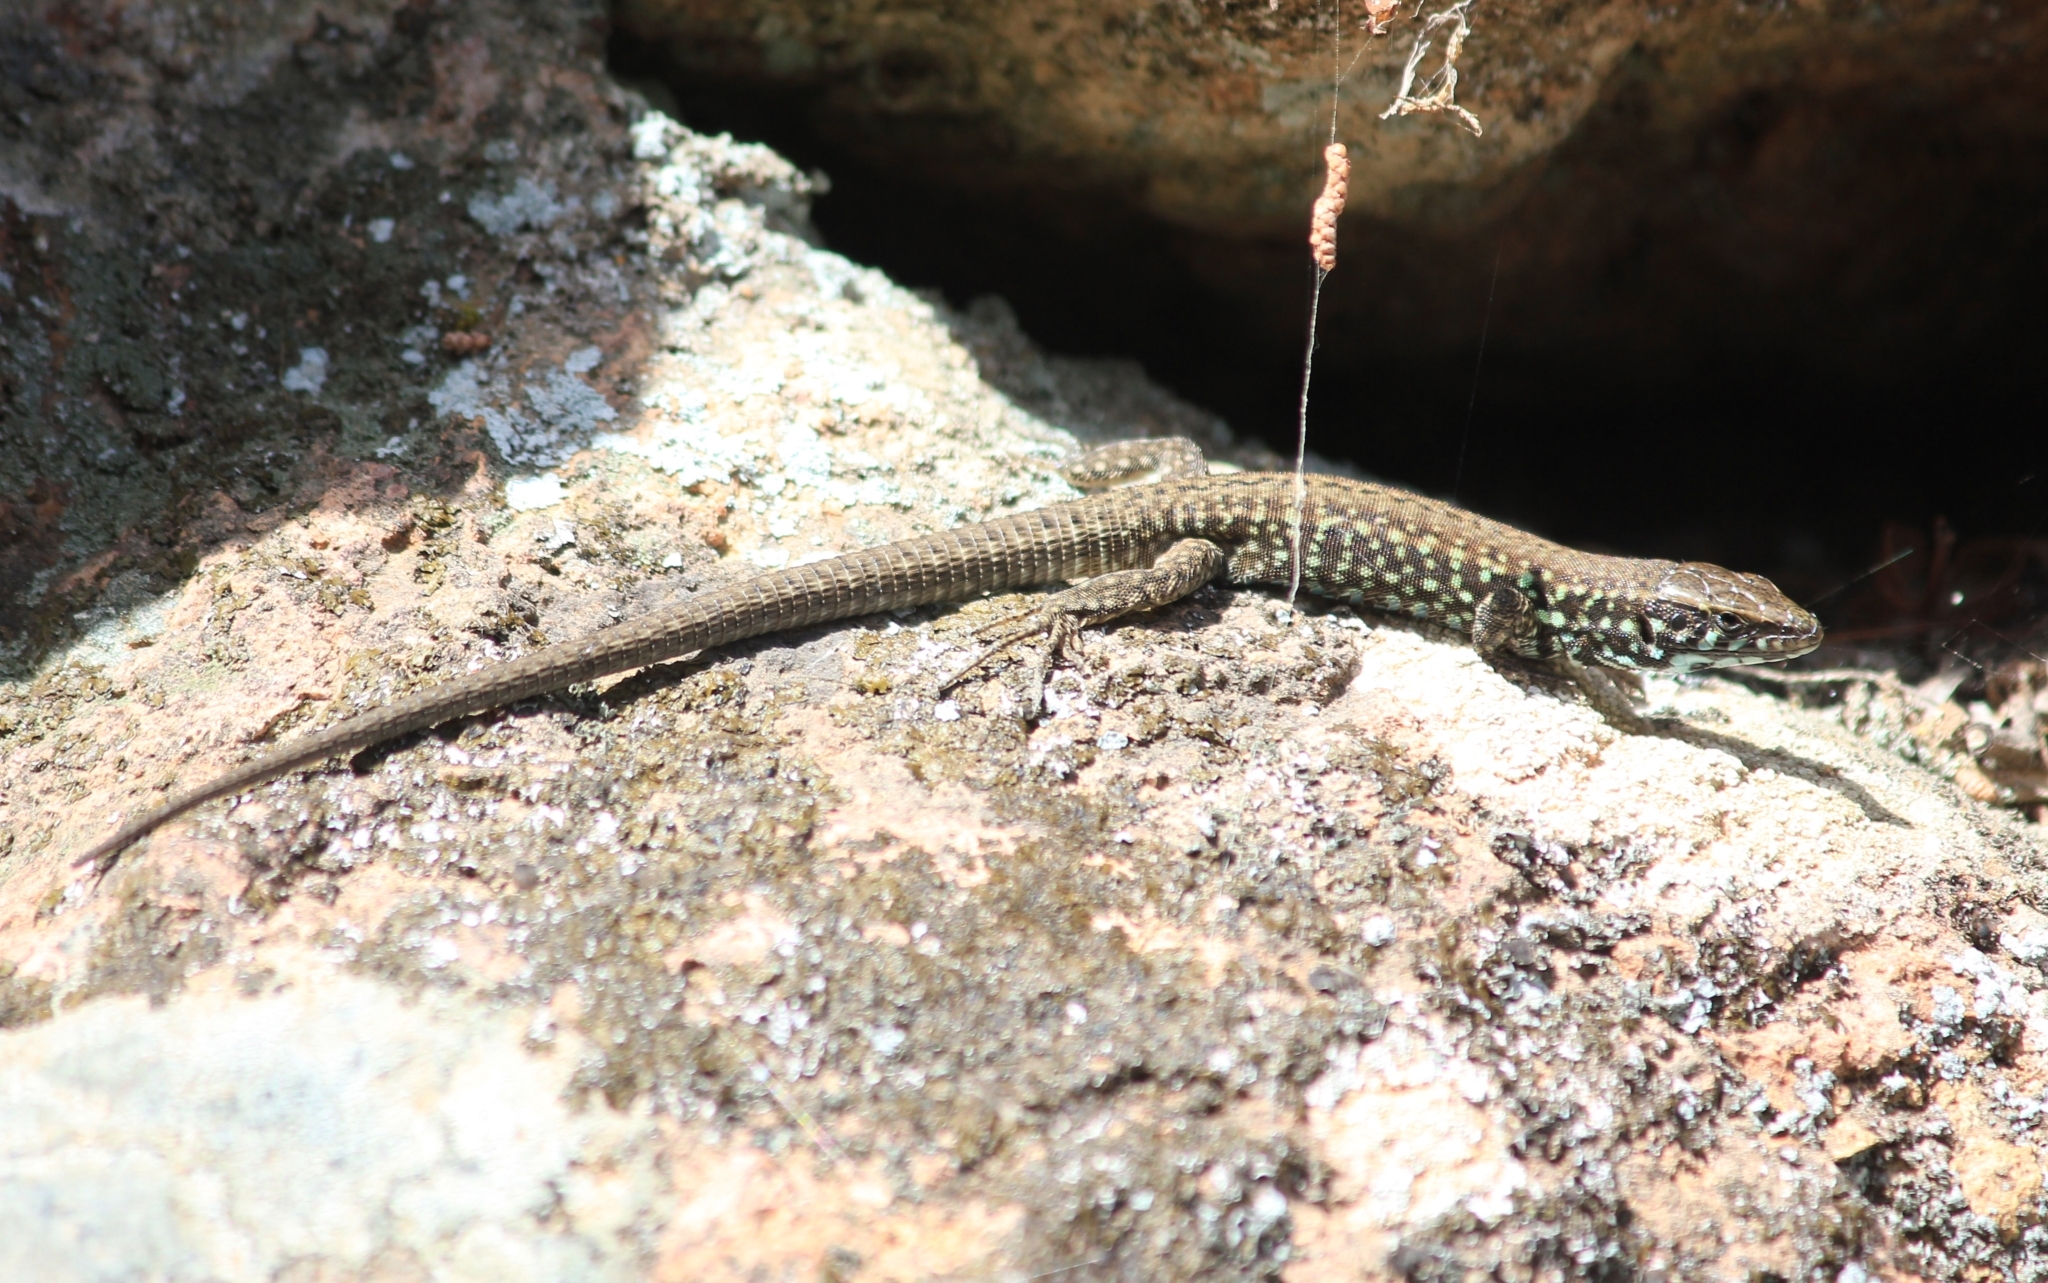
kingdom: Animalia
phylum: Chordata
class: Squamata
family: Lacertidae
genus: Podarcis
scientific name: Podarcis milensis
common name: Milos wall lizard
